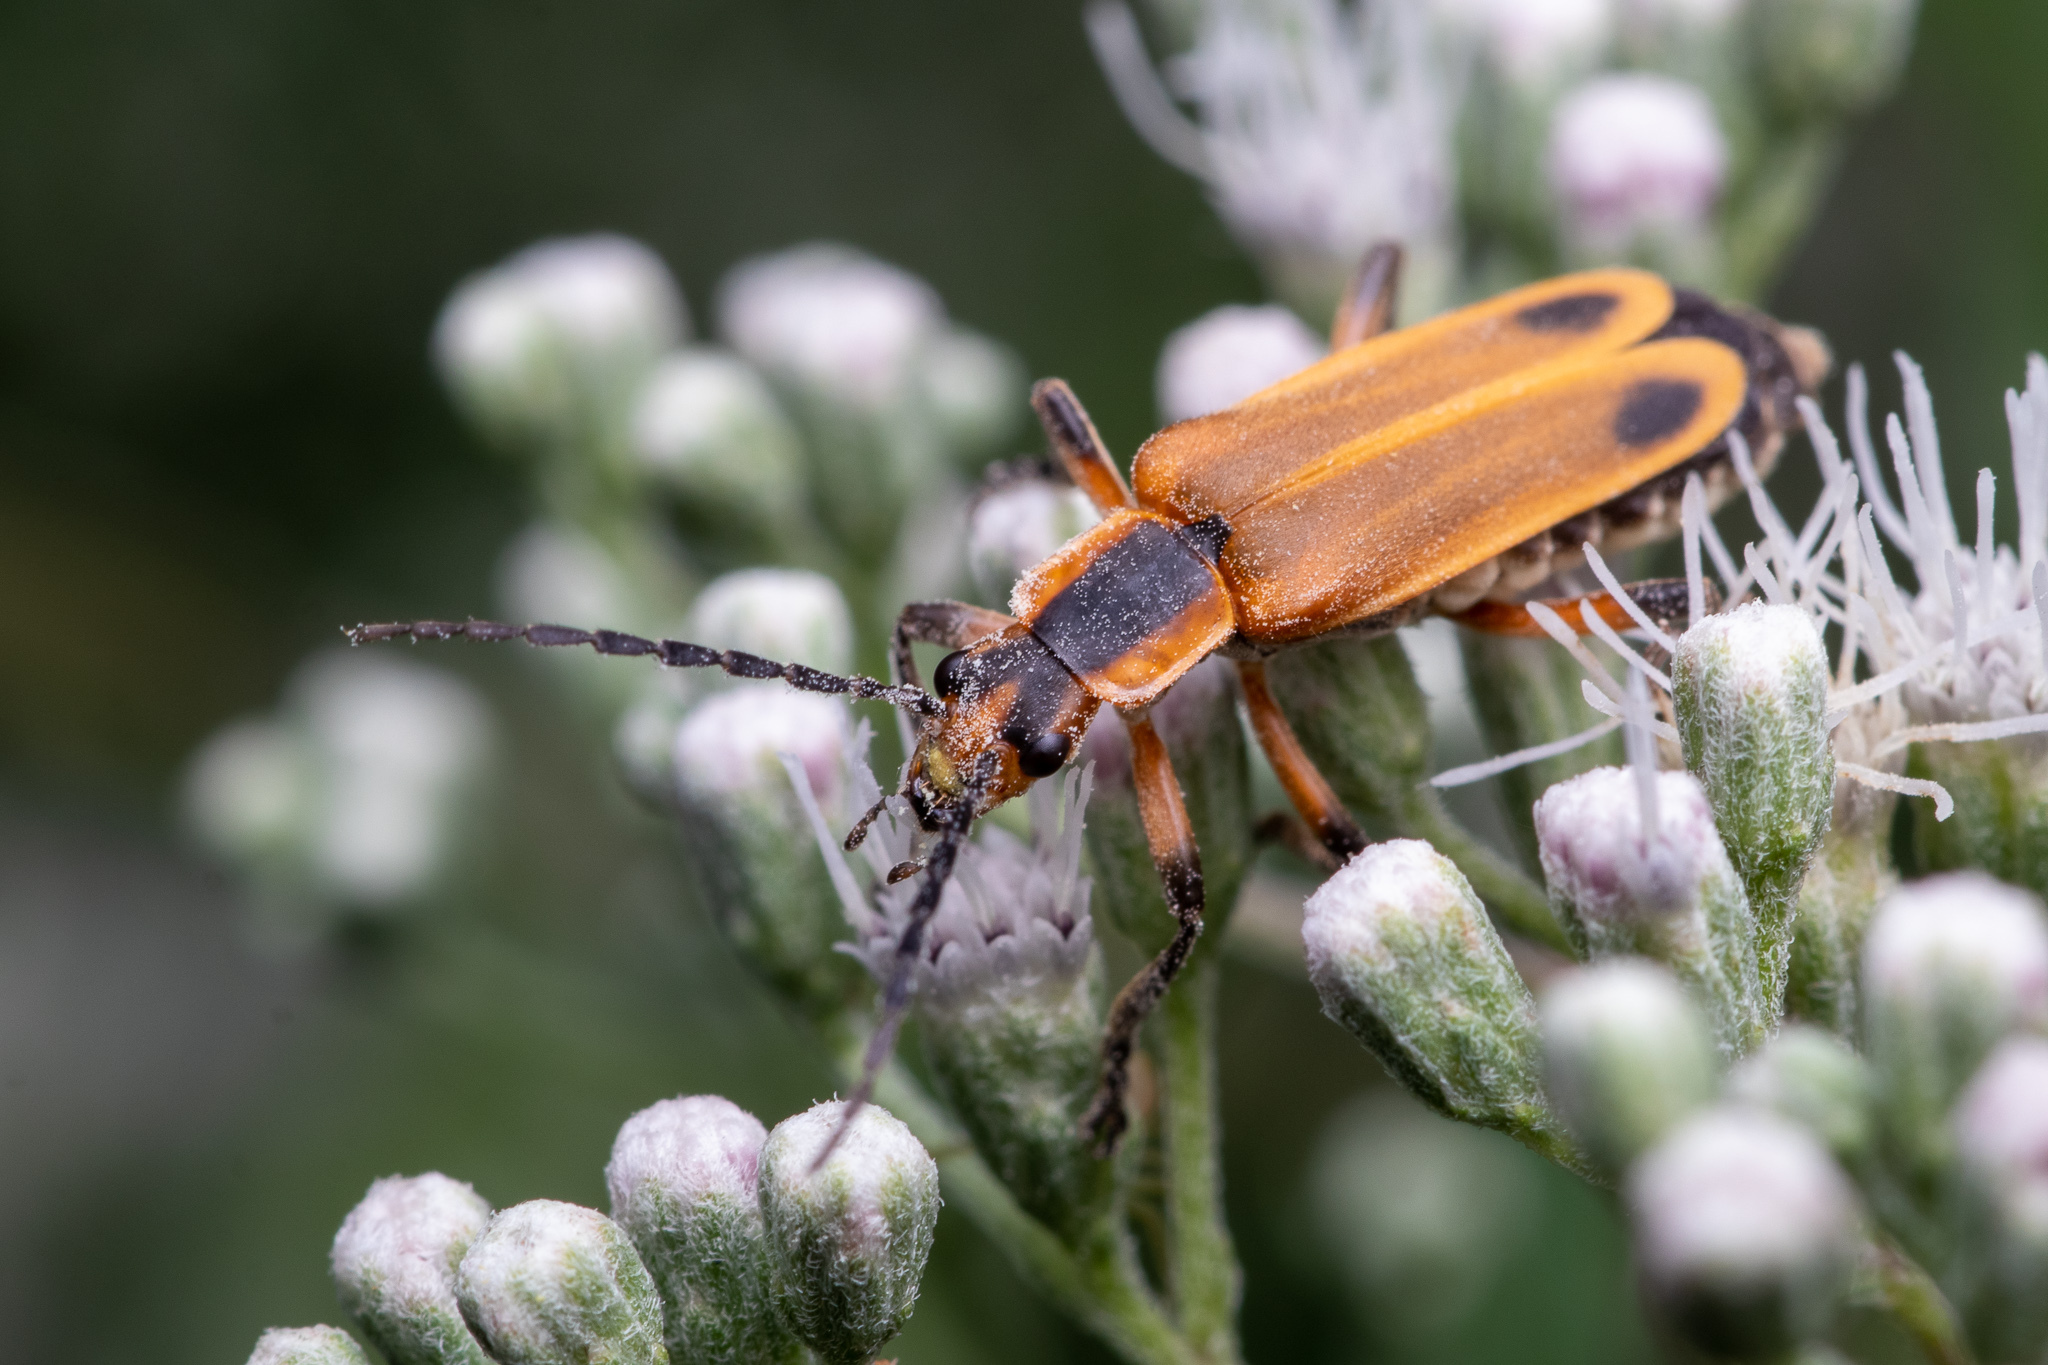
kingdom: Animalia
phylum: Arthropoda
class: Insecta
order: Coleoptera
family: Cantharidae
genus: Chauliognathus
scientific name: Chauliognathus marginatus
